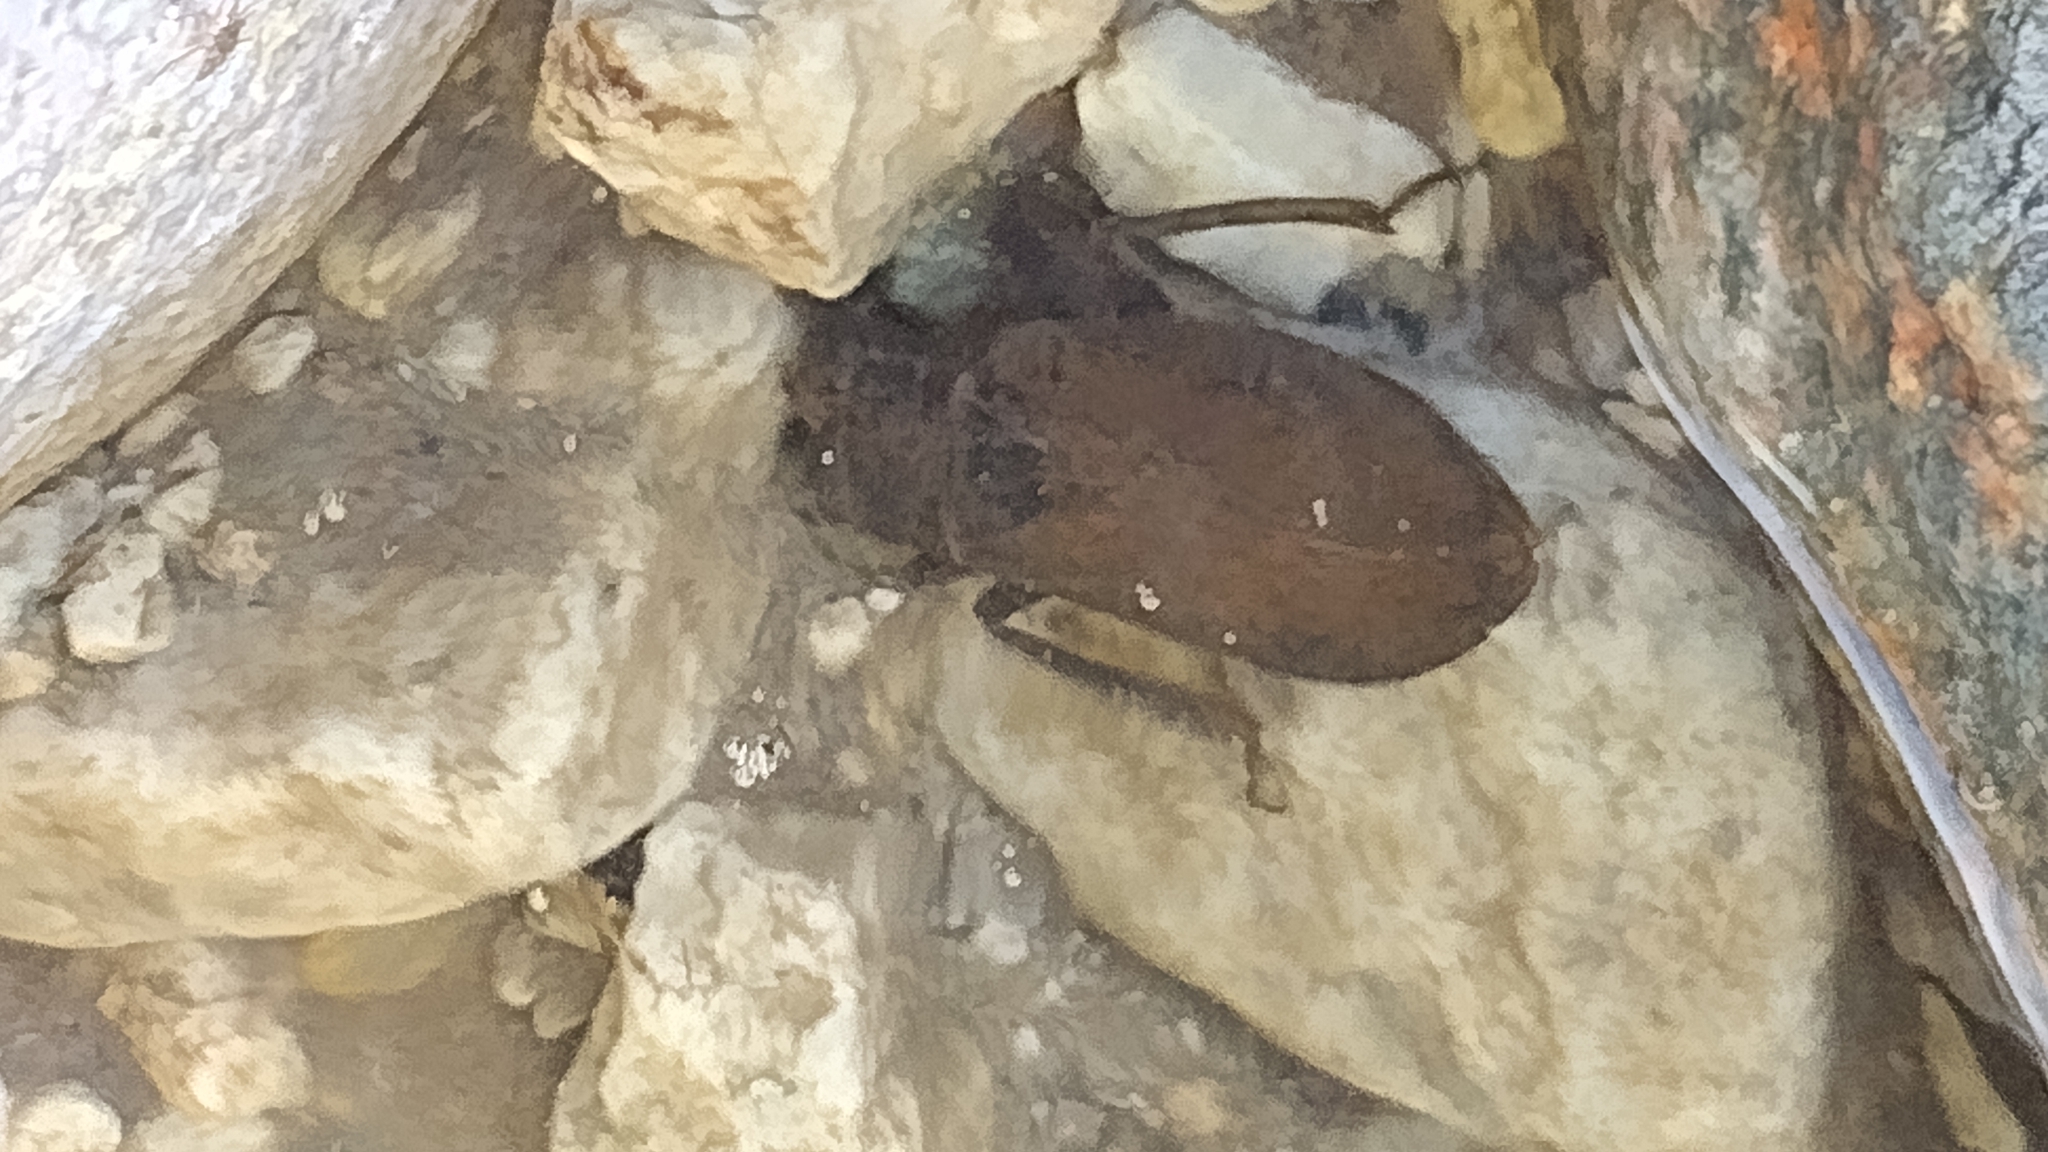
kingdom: Animalia
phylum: Arthropoda
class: Insecta
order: Hemiptera
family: Belostomatidae
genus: Abedus
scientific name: Abedus indentatus
